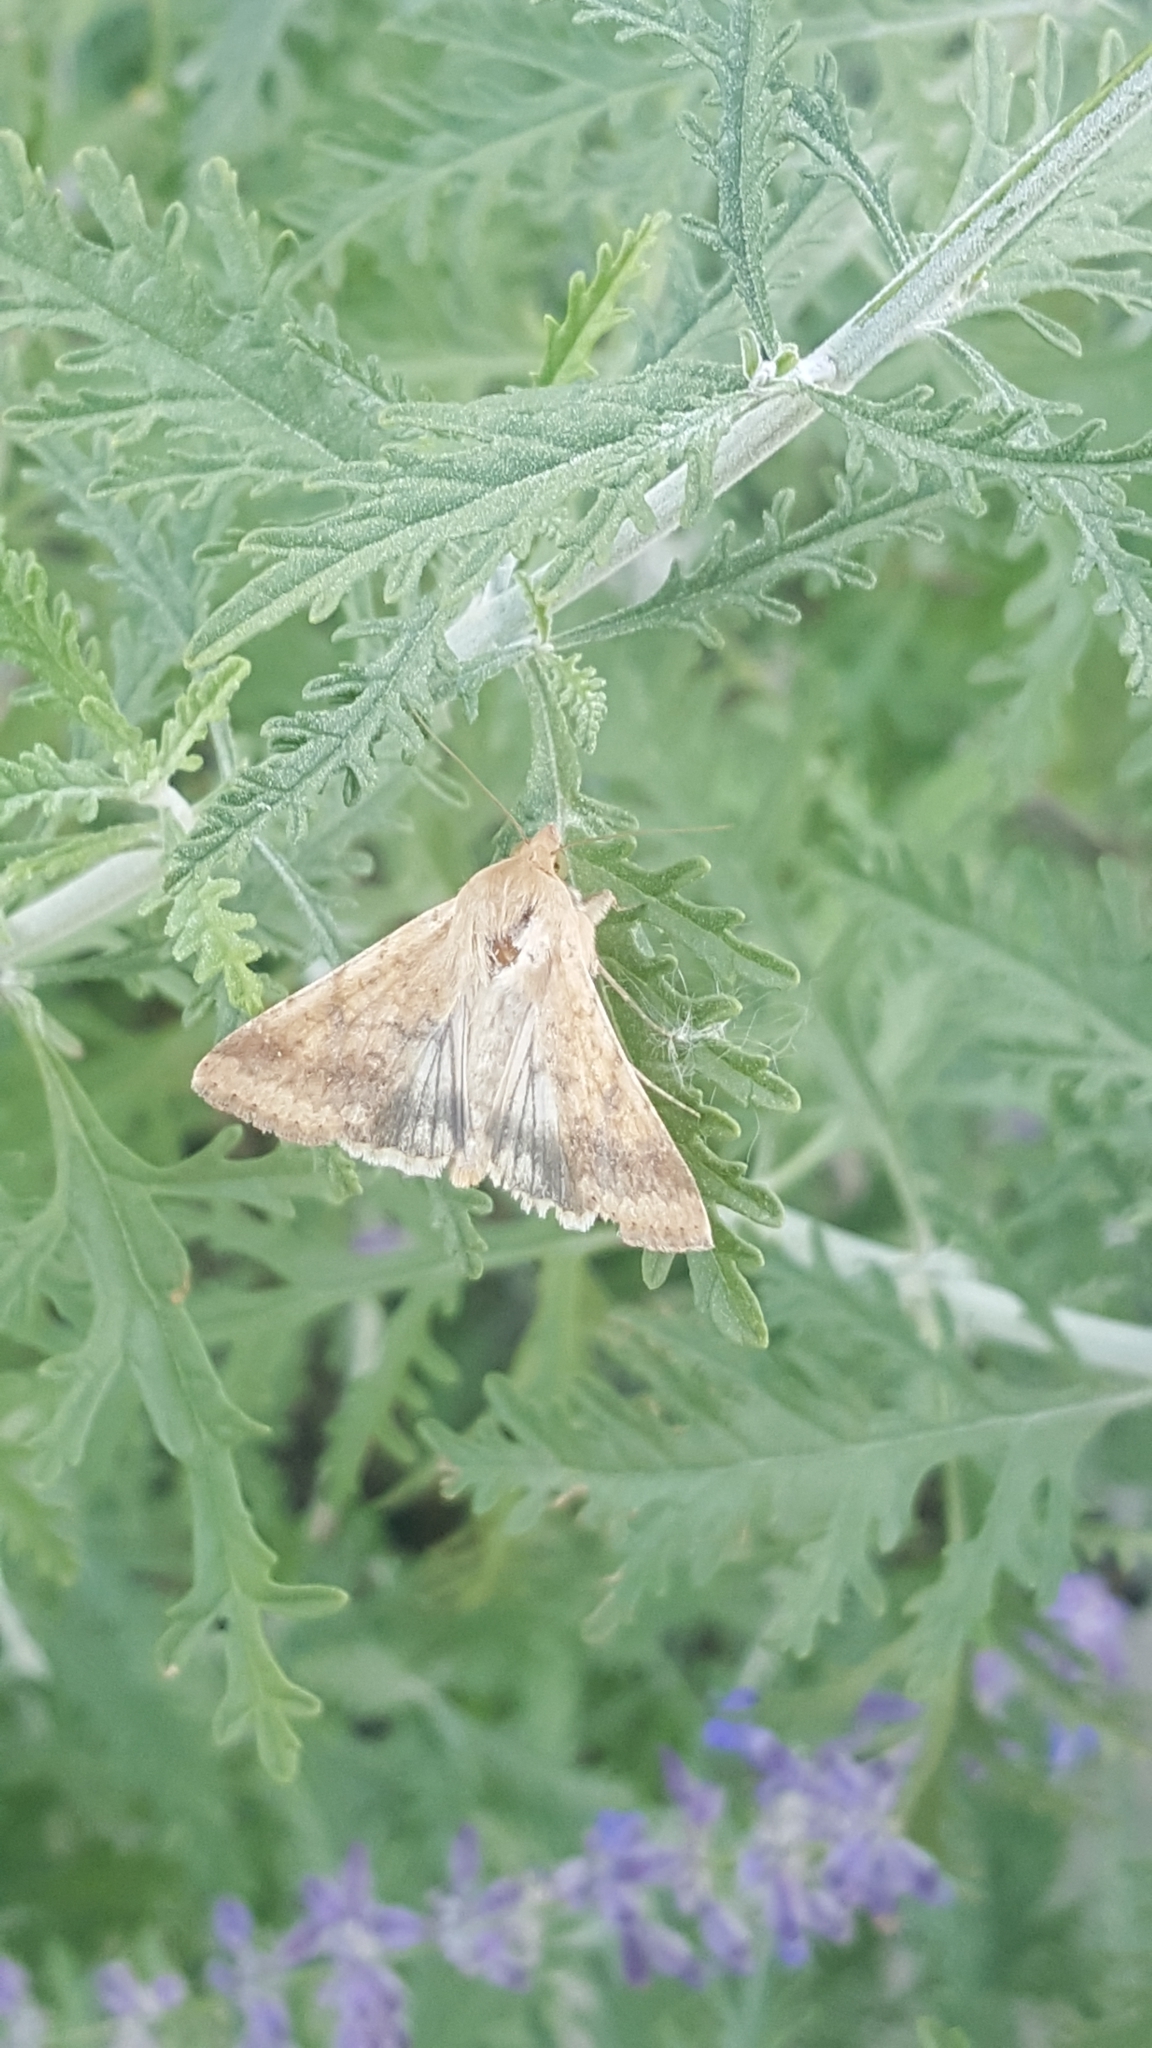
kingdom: Animalia
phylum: Arthropoda
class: Insecta
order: Lepidoptera
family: Noctuidae
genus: Helicoverpa
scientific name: Helicoverpa zea
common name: Bollworm
